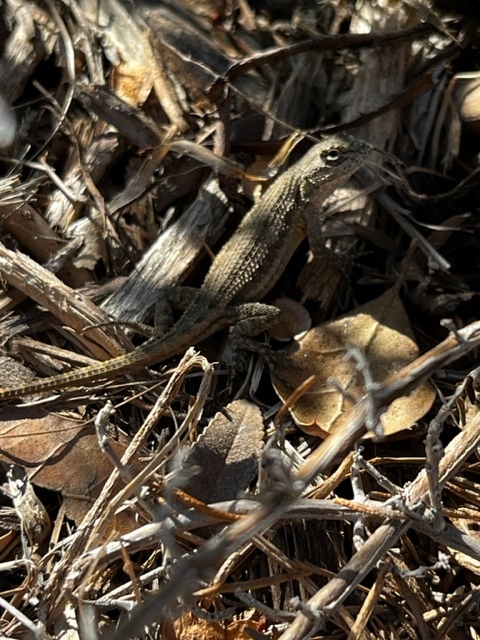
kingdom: Animalia
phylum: Chordata
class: Squamata
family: Phrynosomatidae
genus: Sceloporus
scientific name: Sceloporus occidentalis
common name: Western fence lizard
